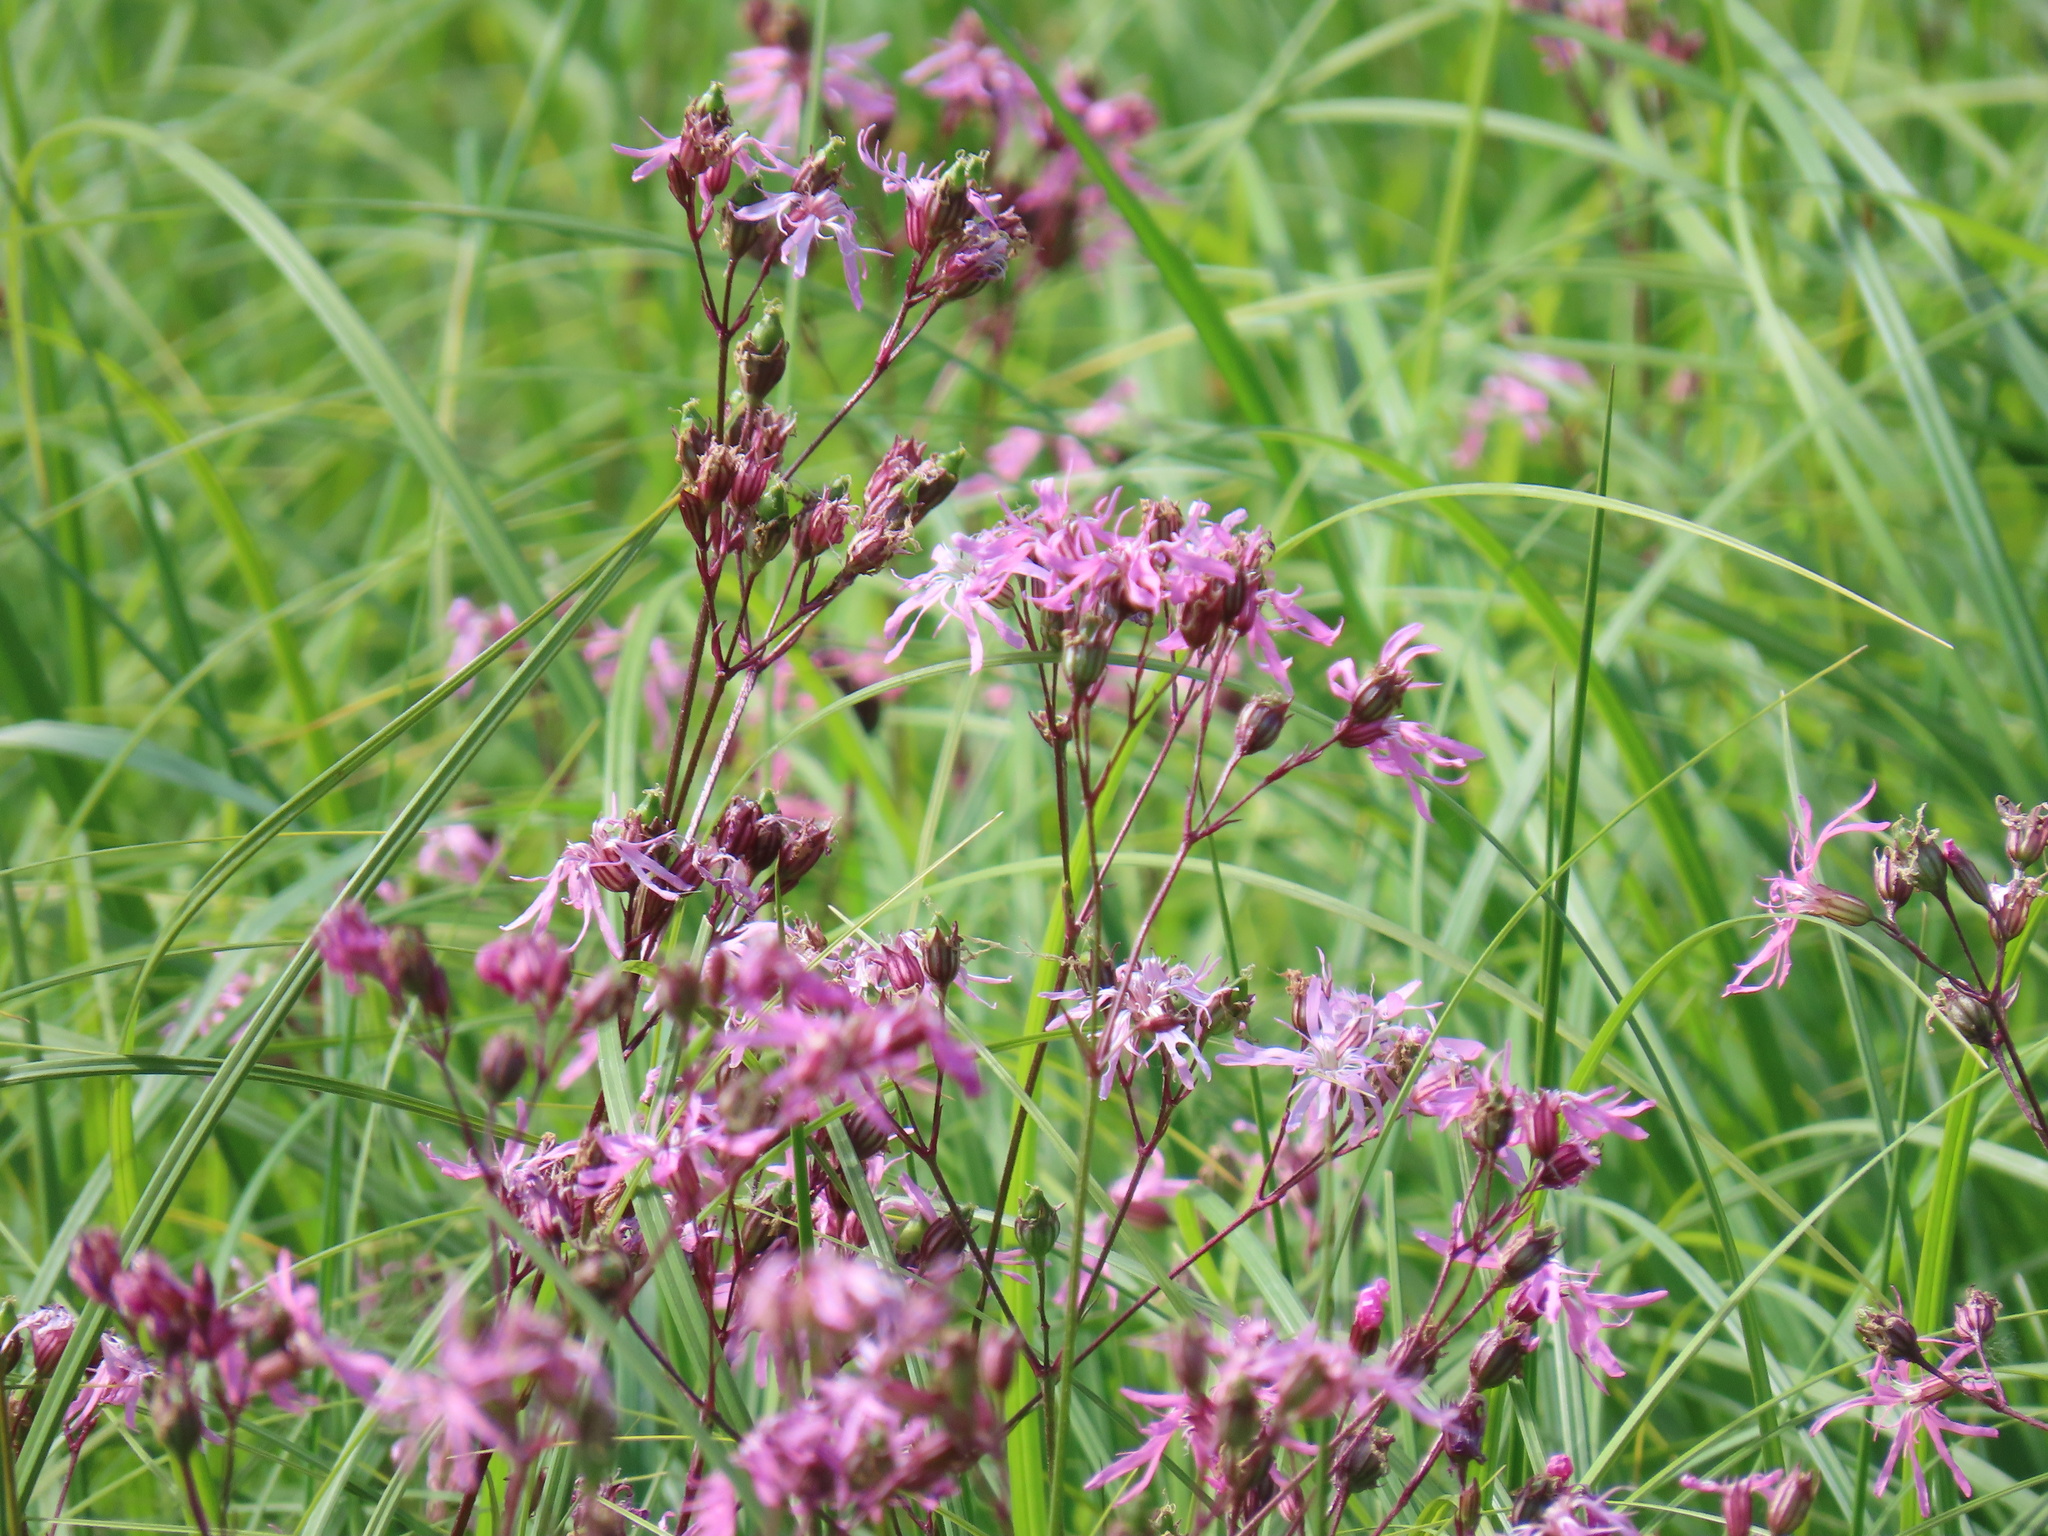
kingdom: Plantae
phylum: Tracheophyta
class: Magnoliopsida
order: Caryophyllales
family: Caryophyllaceae
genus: Silene
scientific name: Silene flos-cuculi
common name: Ragged-robin
